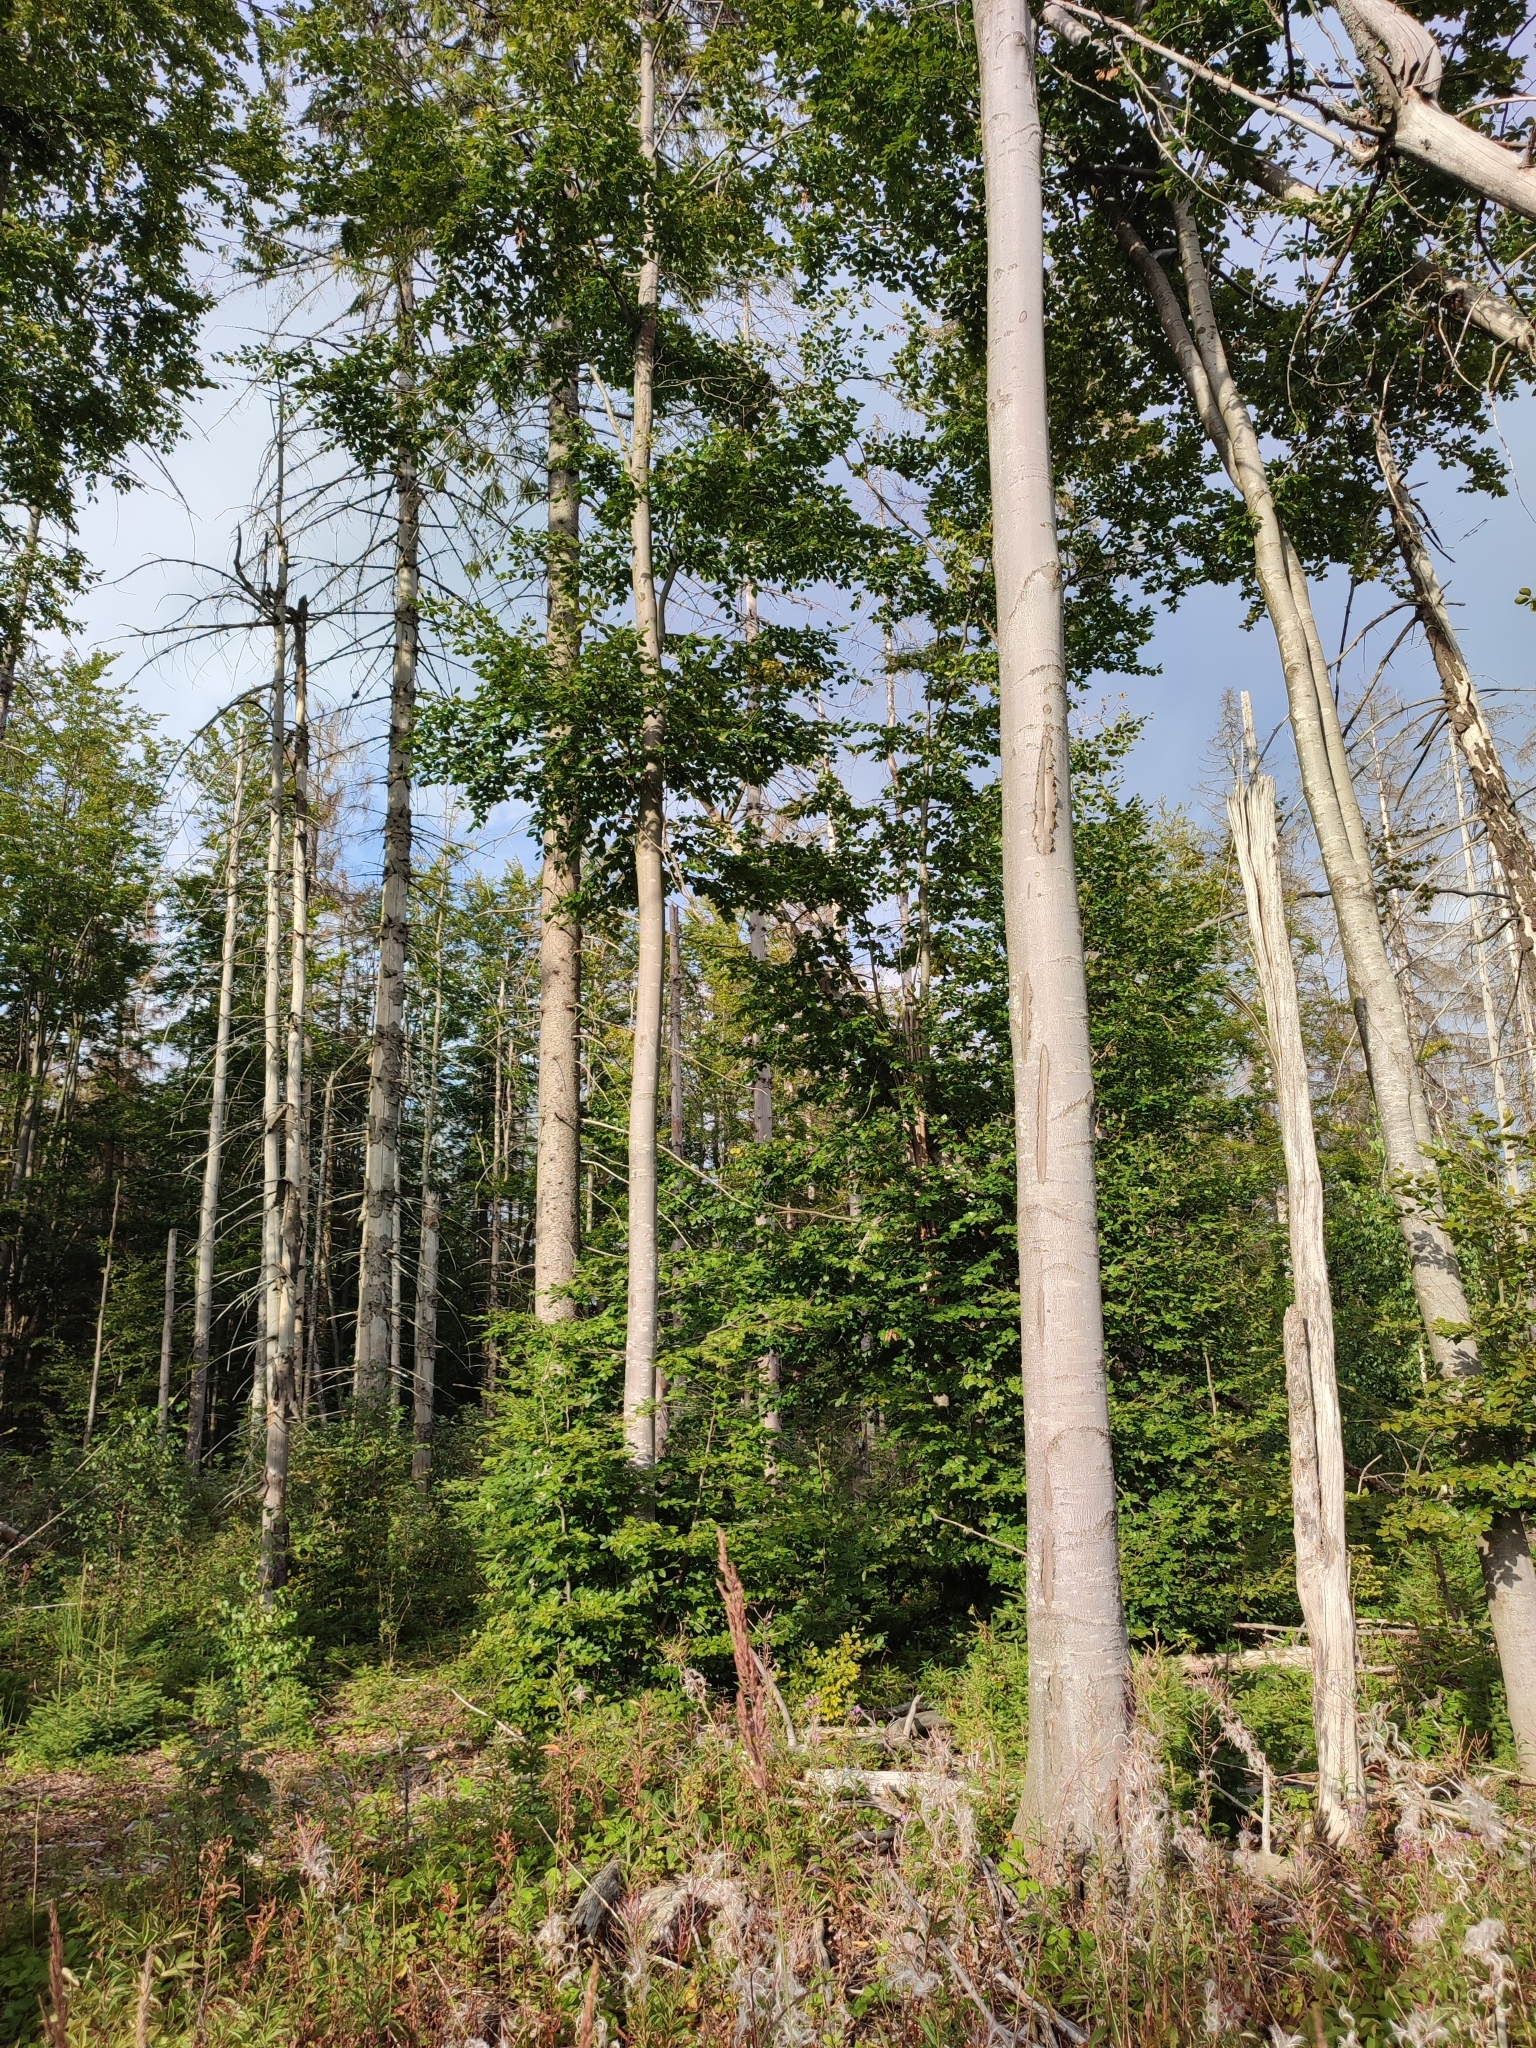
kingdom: Plantae
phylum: Tracheophyta
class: Magnoliopsida
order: Fagales
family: Fagaceae
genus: Fagus
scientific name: Fagus sylvatica
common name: Beech
